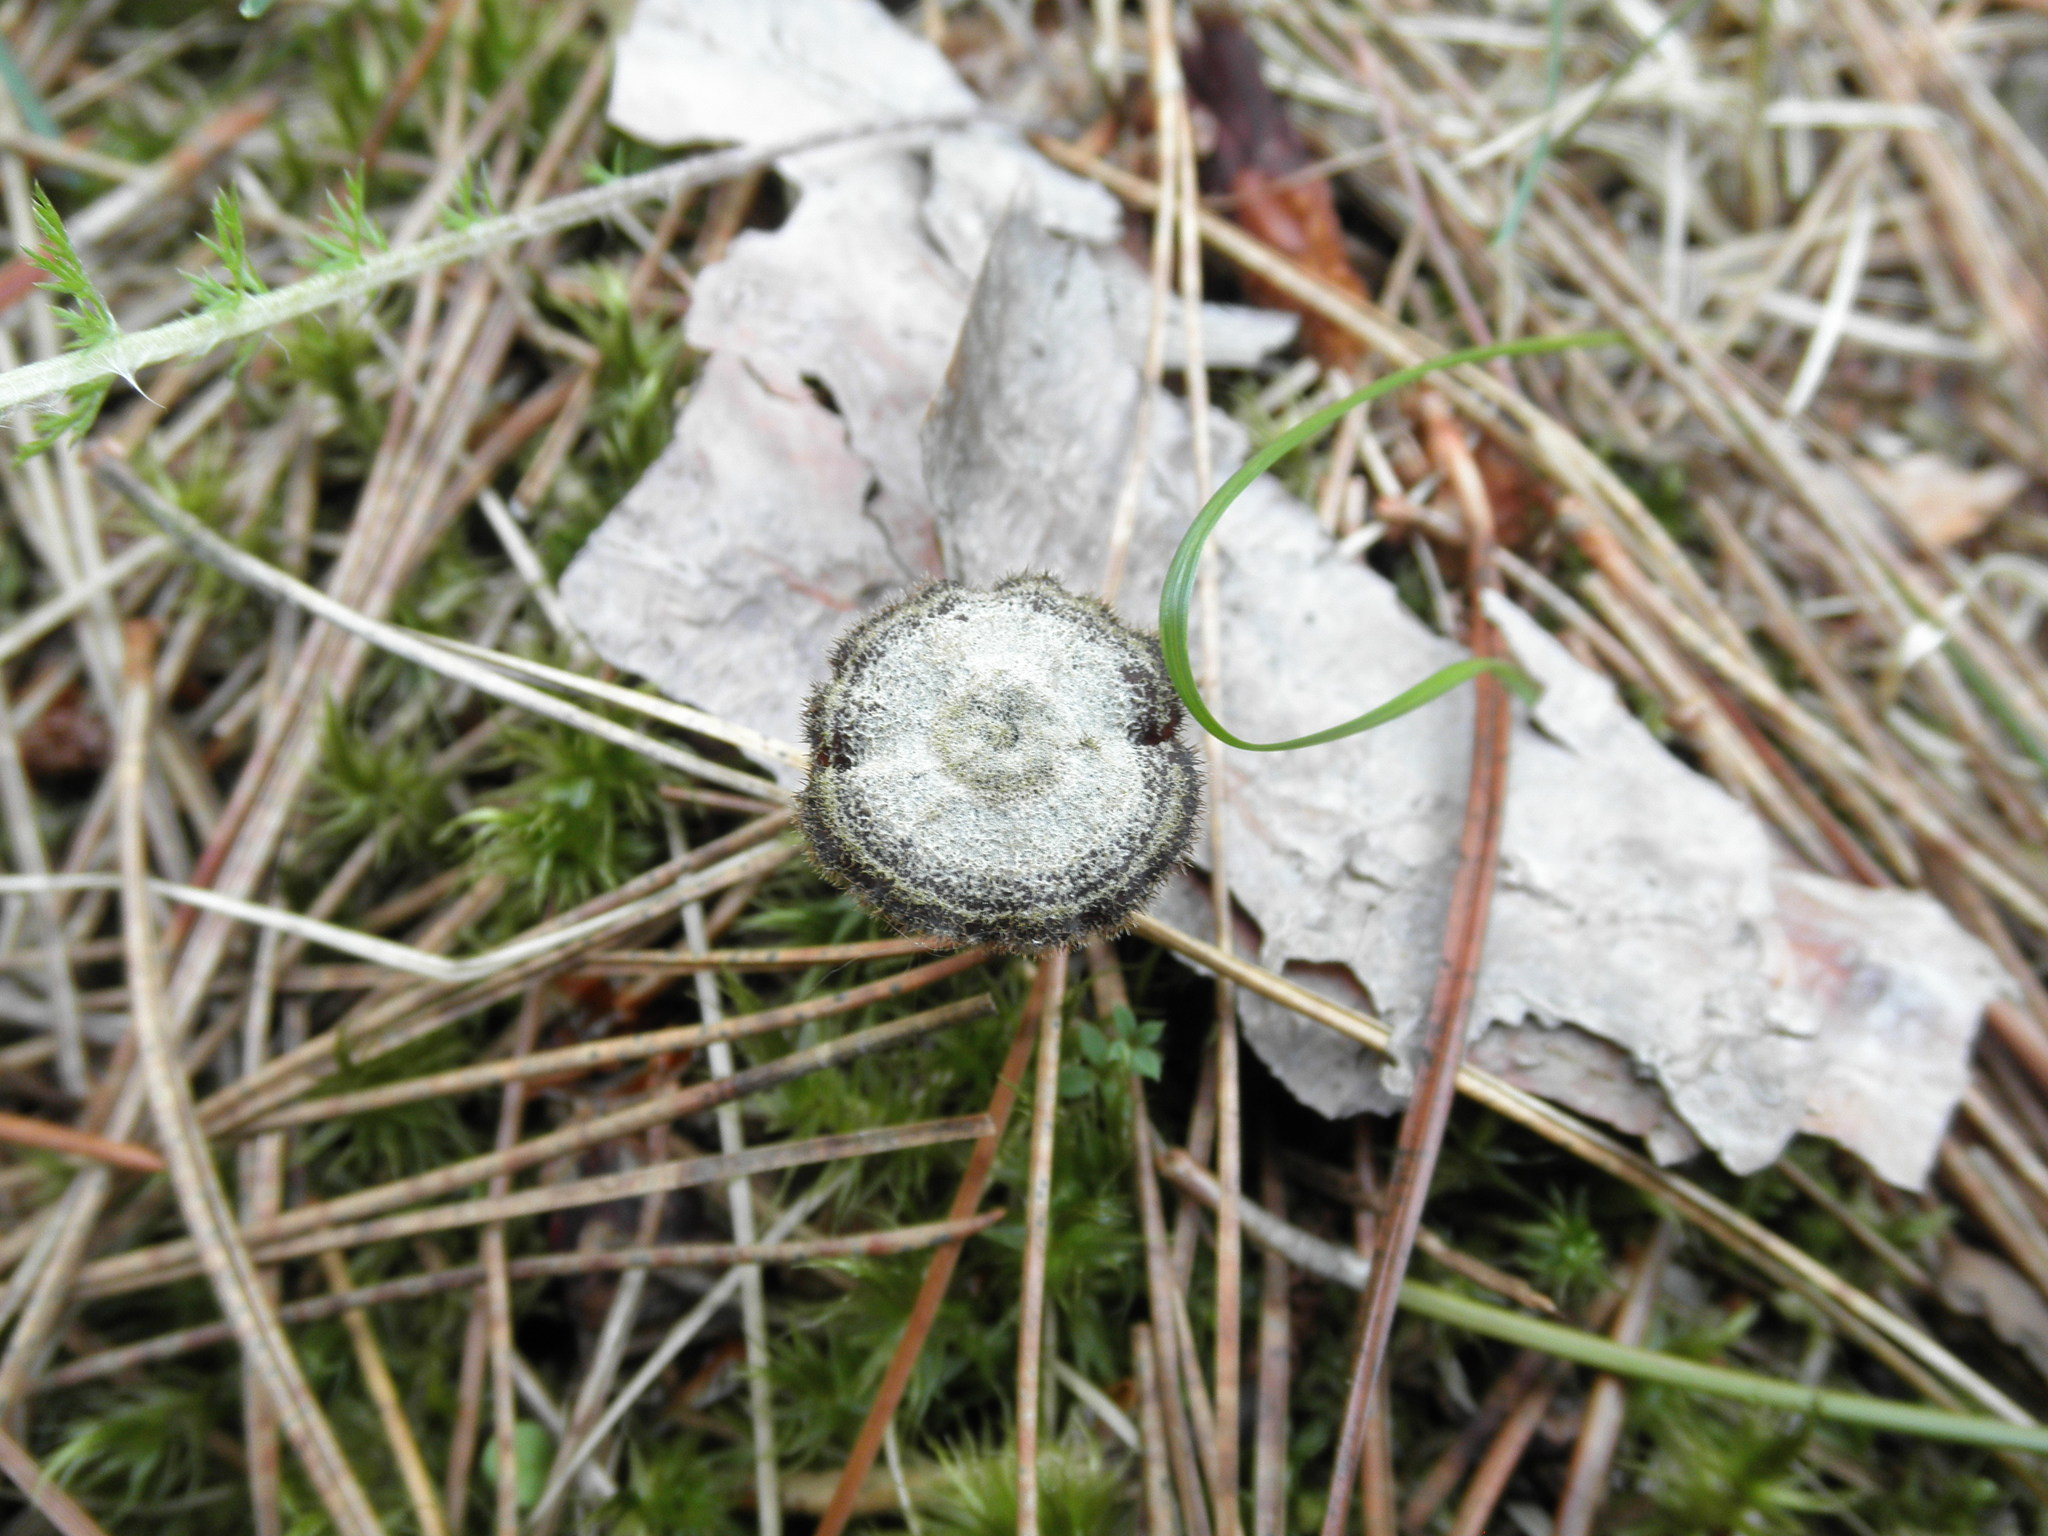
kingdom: Fungi
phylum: Basidiomycota
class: Agaricomycetes
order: Russulales
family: Auriscalpiaceae
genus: Auriscalpium
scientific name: Auriscalpium vulgare
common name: Earpick fungus
